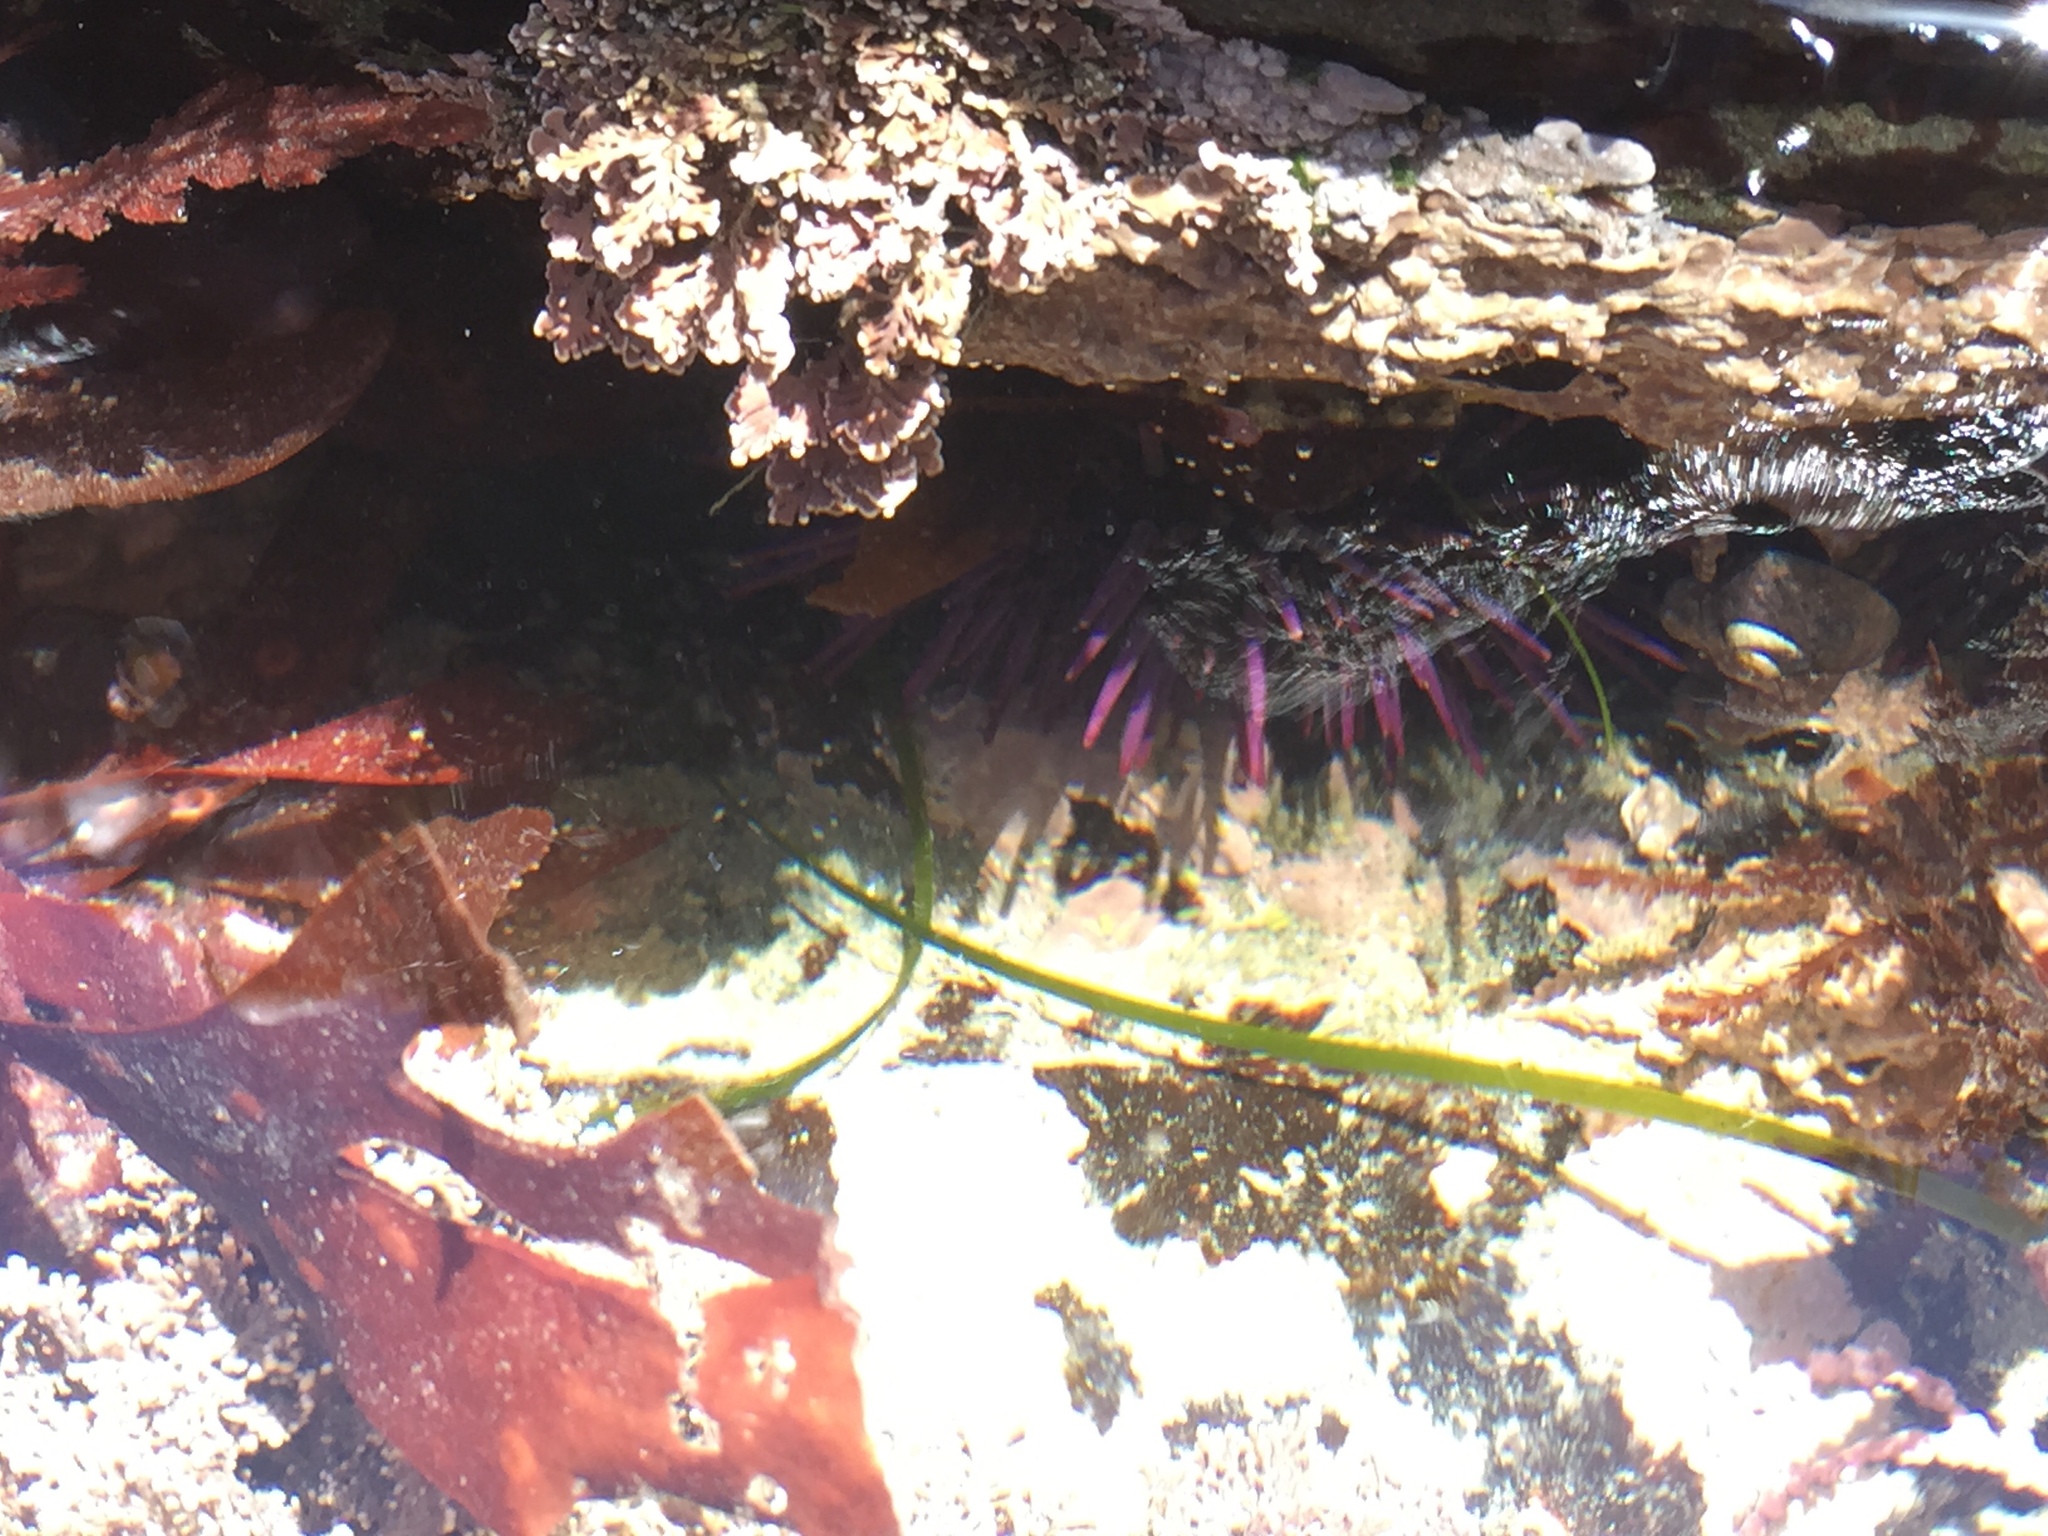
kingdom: Animalia
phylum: Echinodermata
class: Echinoidea
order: Camarodonta
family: Strongylocentrotidae
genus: Strongylocentrotus
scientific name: Strongylocentrotus purpuratus
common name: Purple sea urchin
